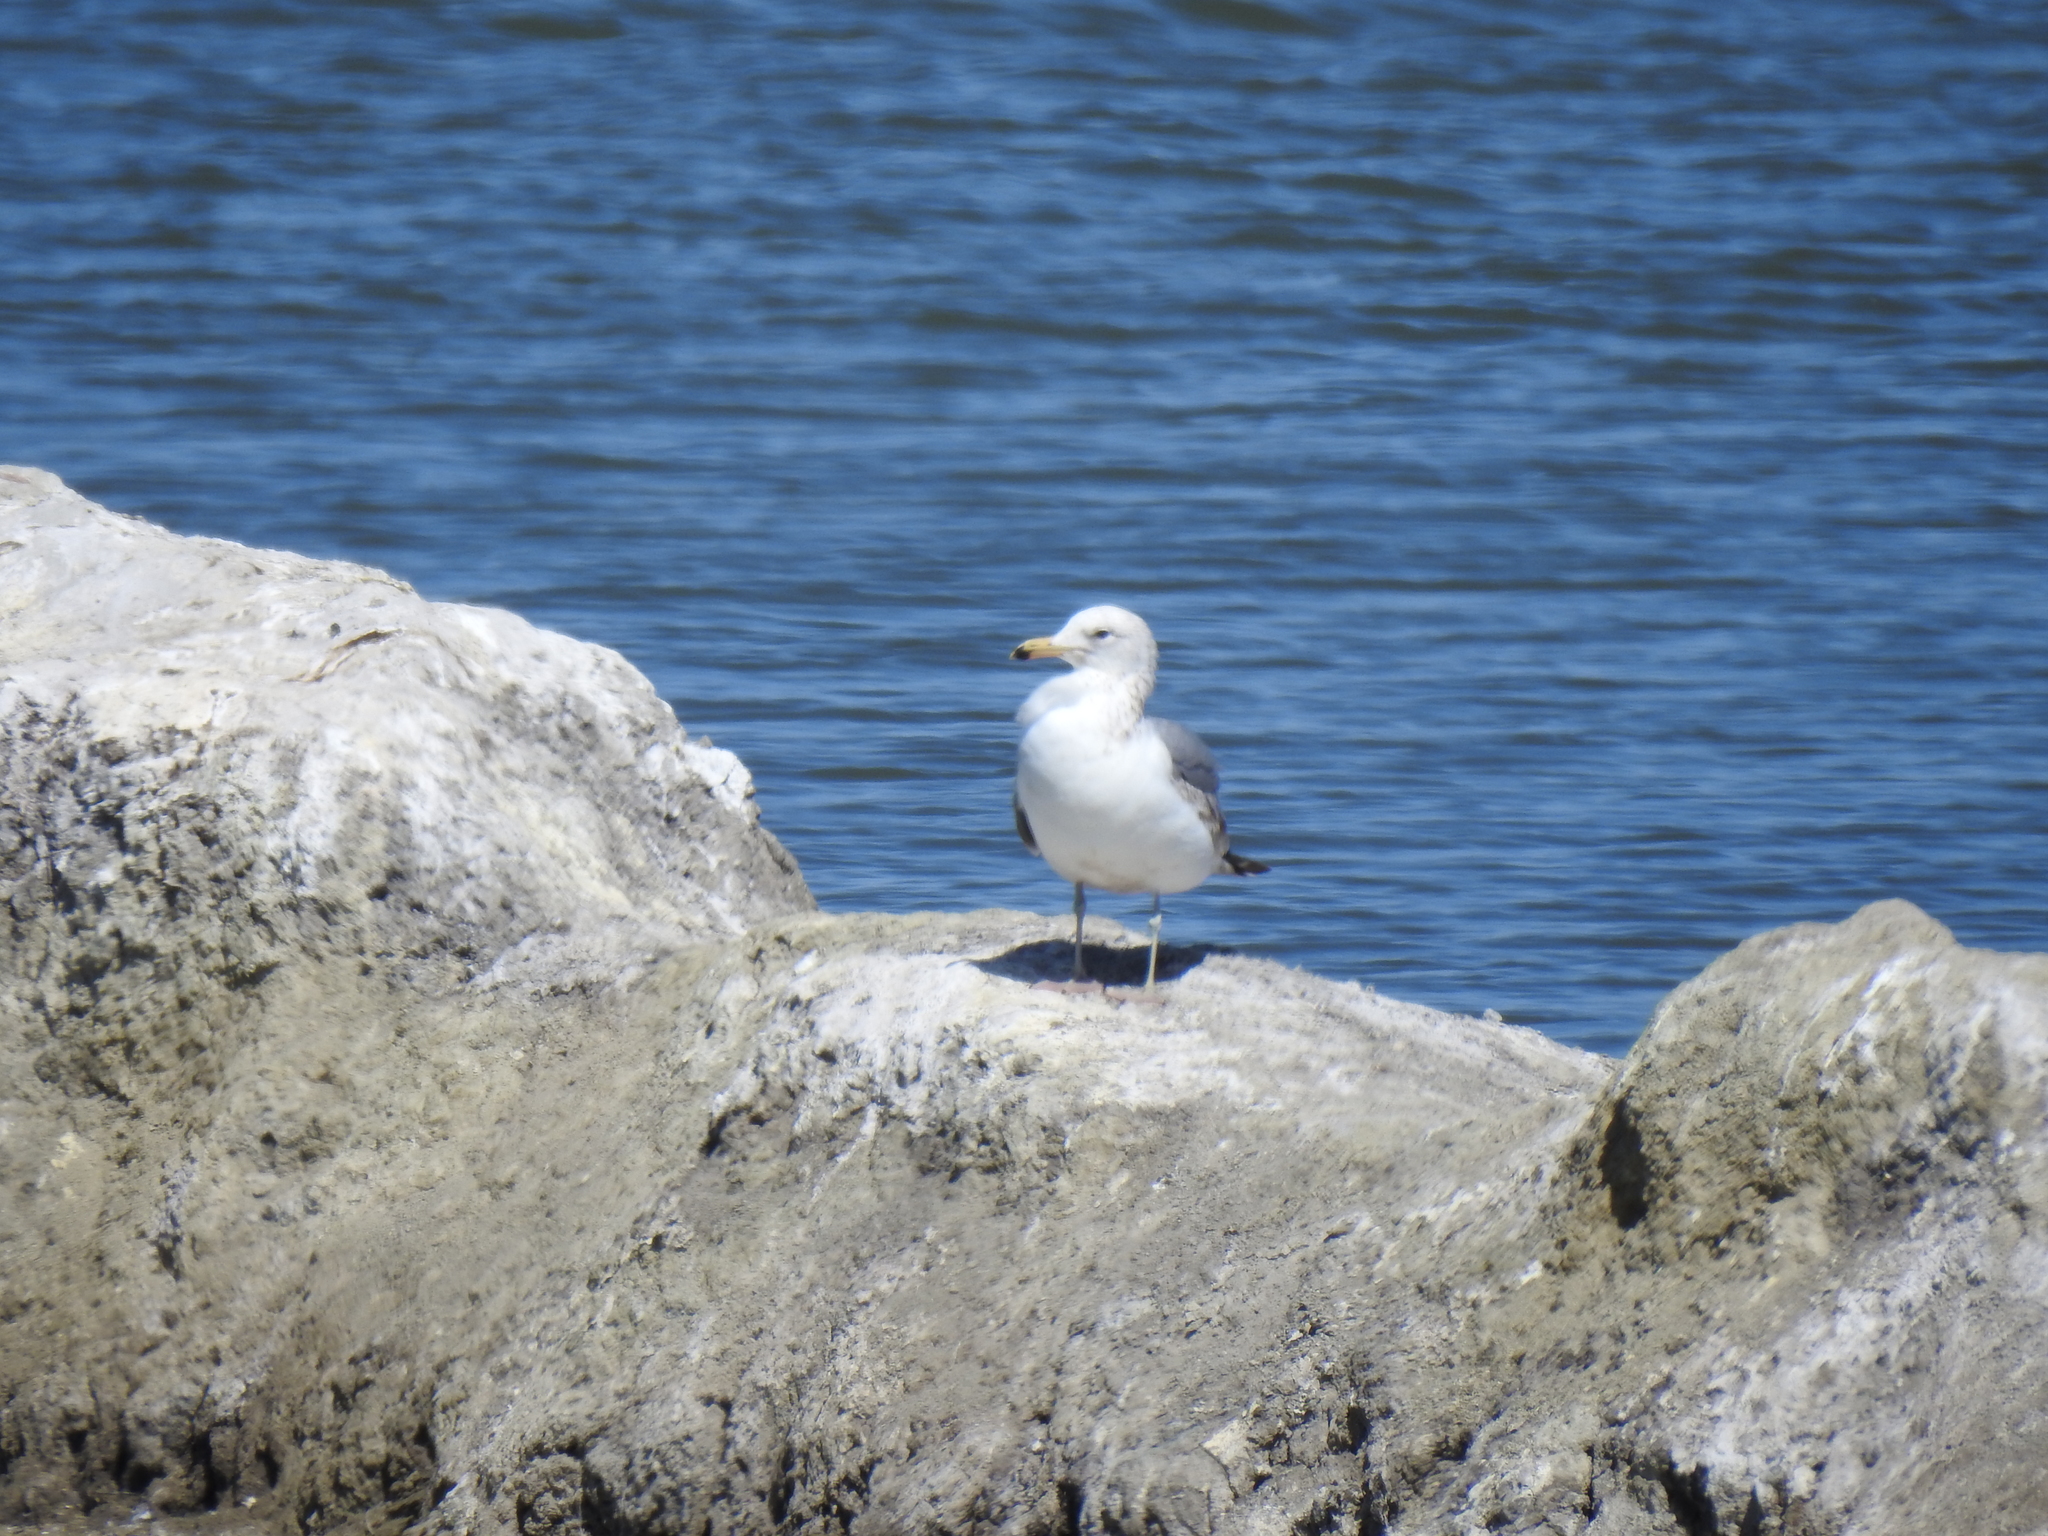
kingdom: Animalia
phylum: Chordata
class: Aves
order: Charadriiformes
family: Laridae
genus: Larus
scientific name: Larus californicus
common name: California gull
